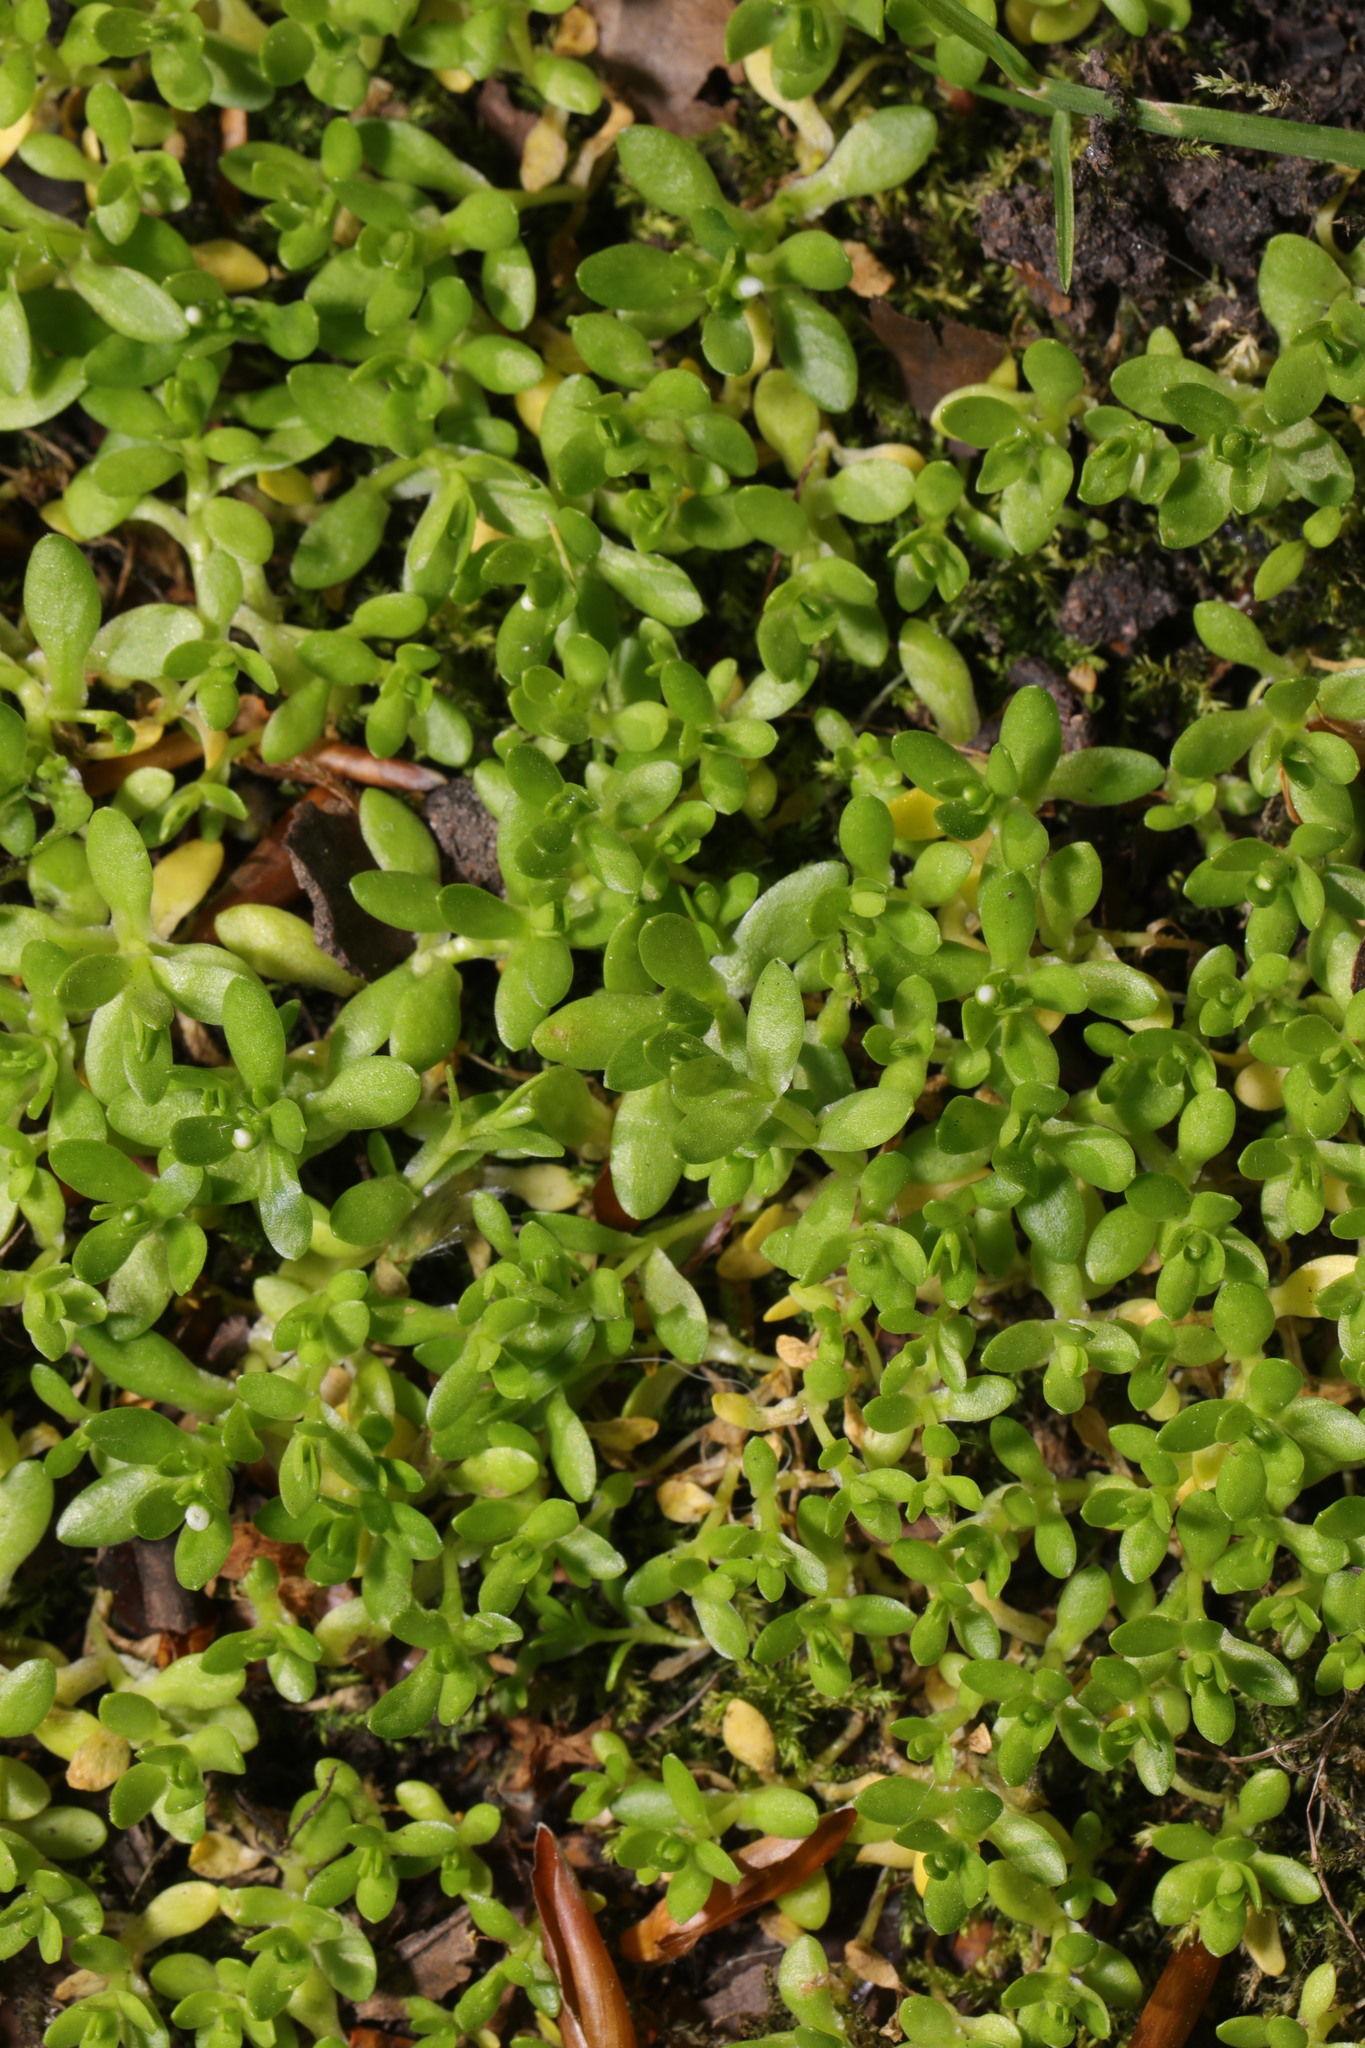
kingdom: Plantae
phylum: Tracheophyta
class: Magnoliopsida
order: Caryophyllales
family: Montiaceae
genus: Montia
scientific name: Montia fontana
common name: Blinks
